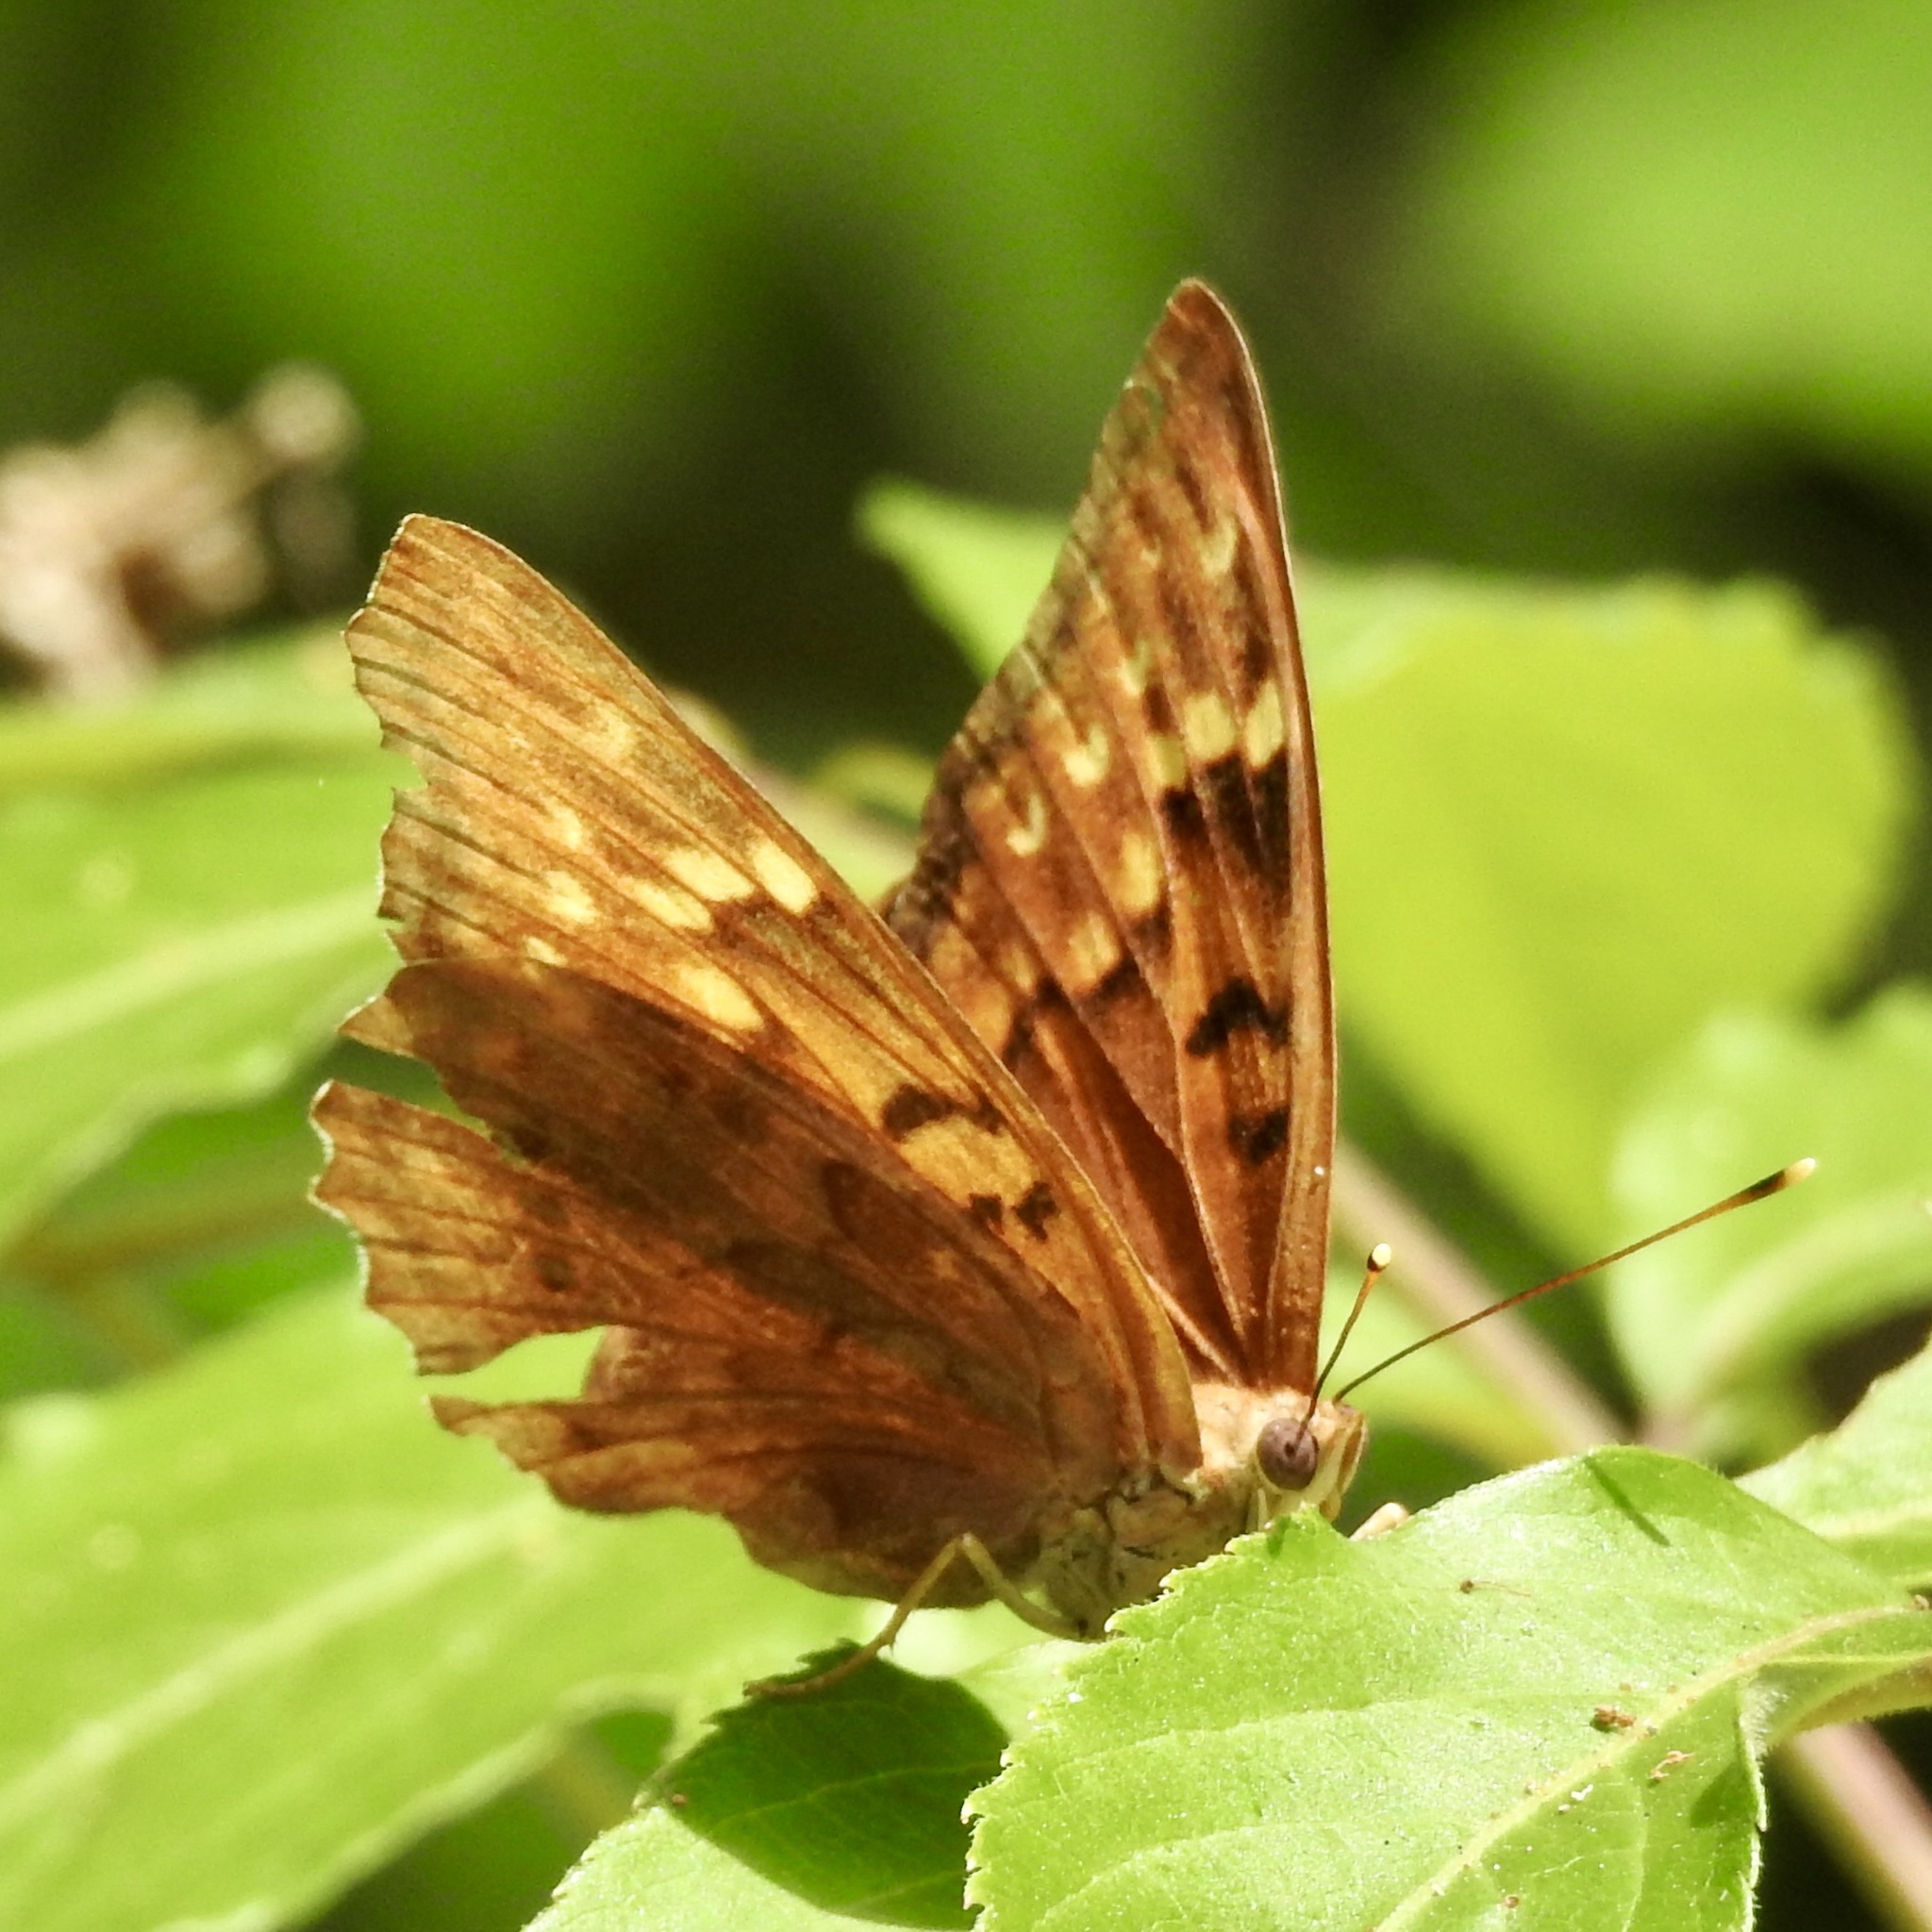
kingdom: Animalia
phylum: Arthropoda
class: Insecta
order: Lepidoptera
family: Nymphalidae
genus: Asterocampa
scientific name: Asterocampa clyton
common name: Tawny emperor
